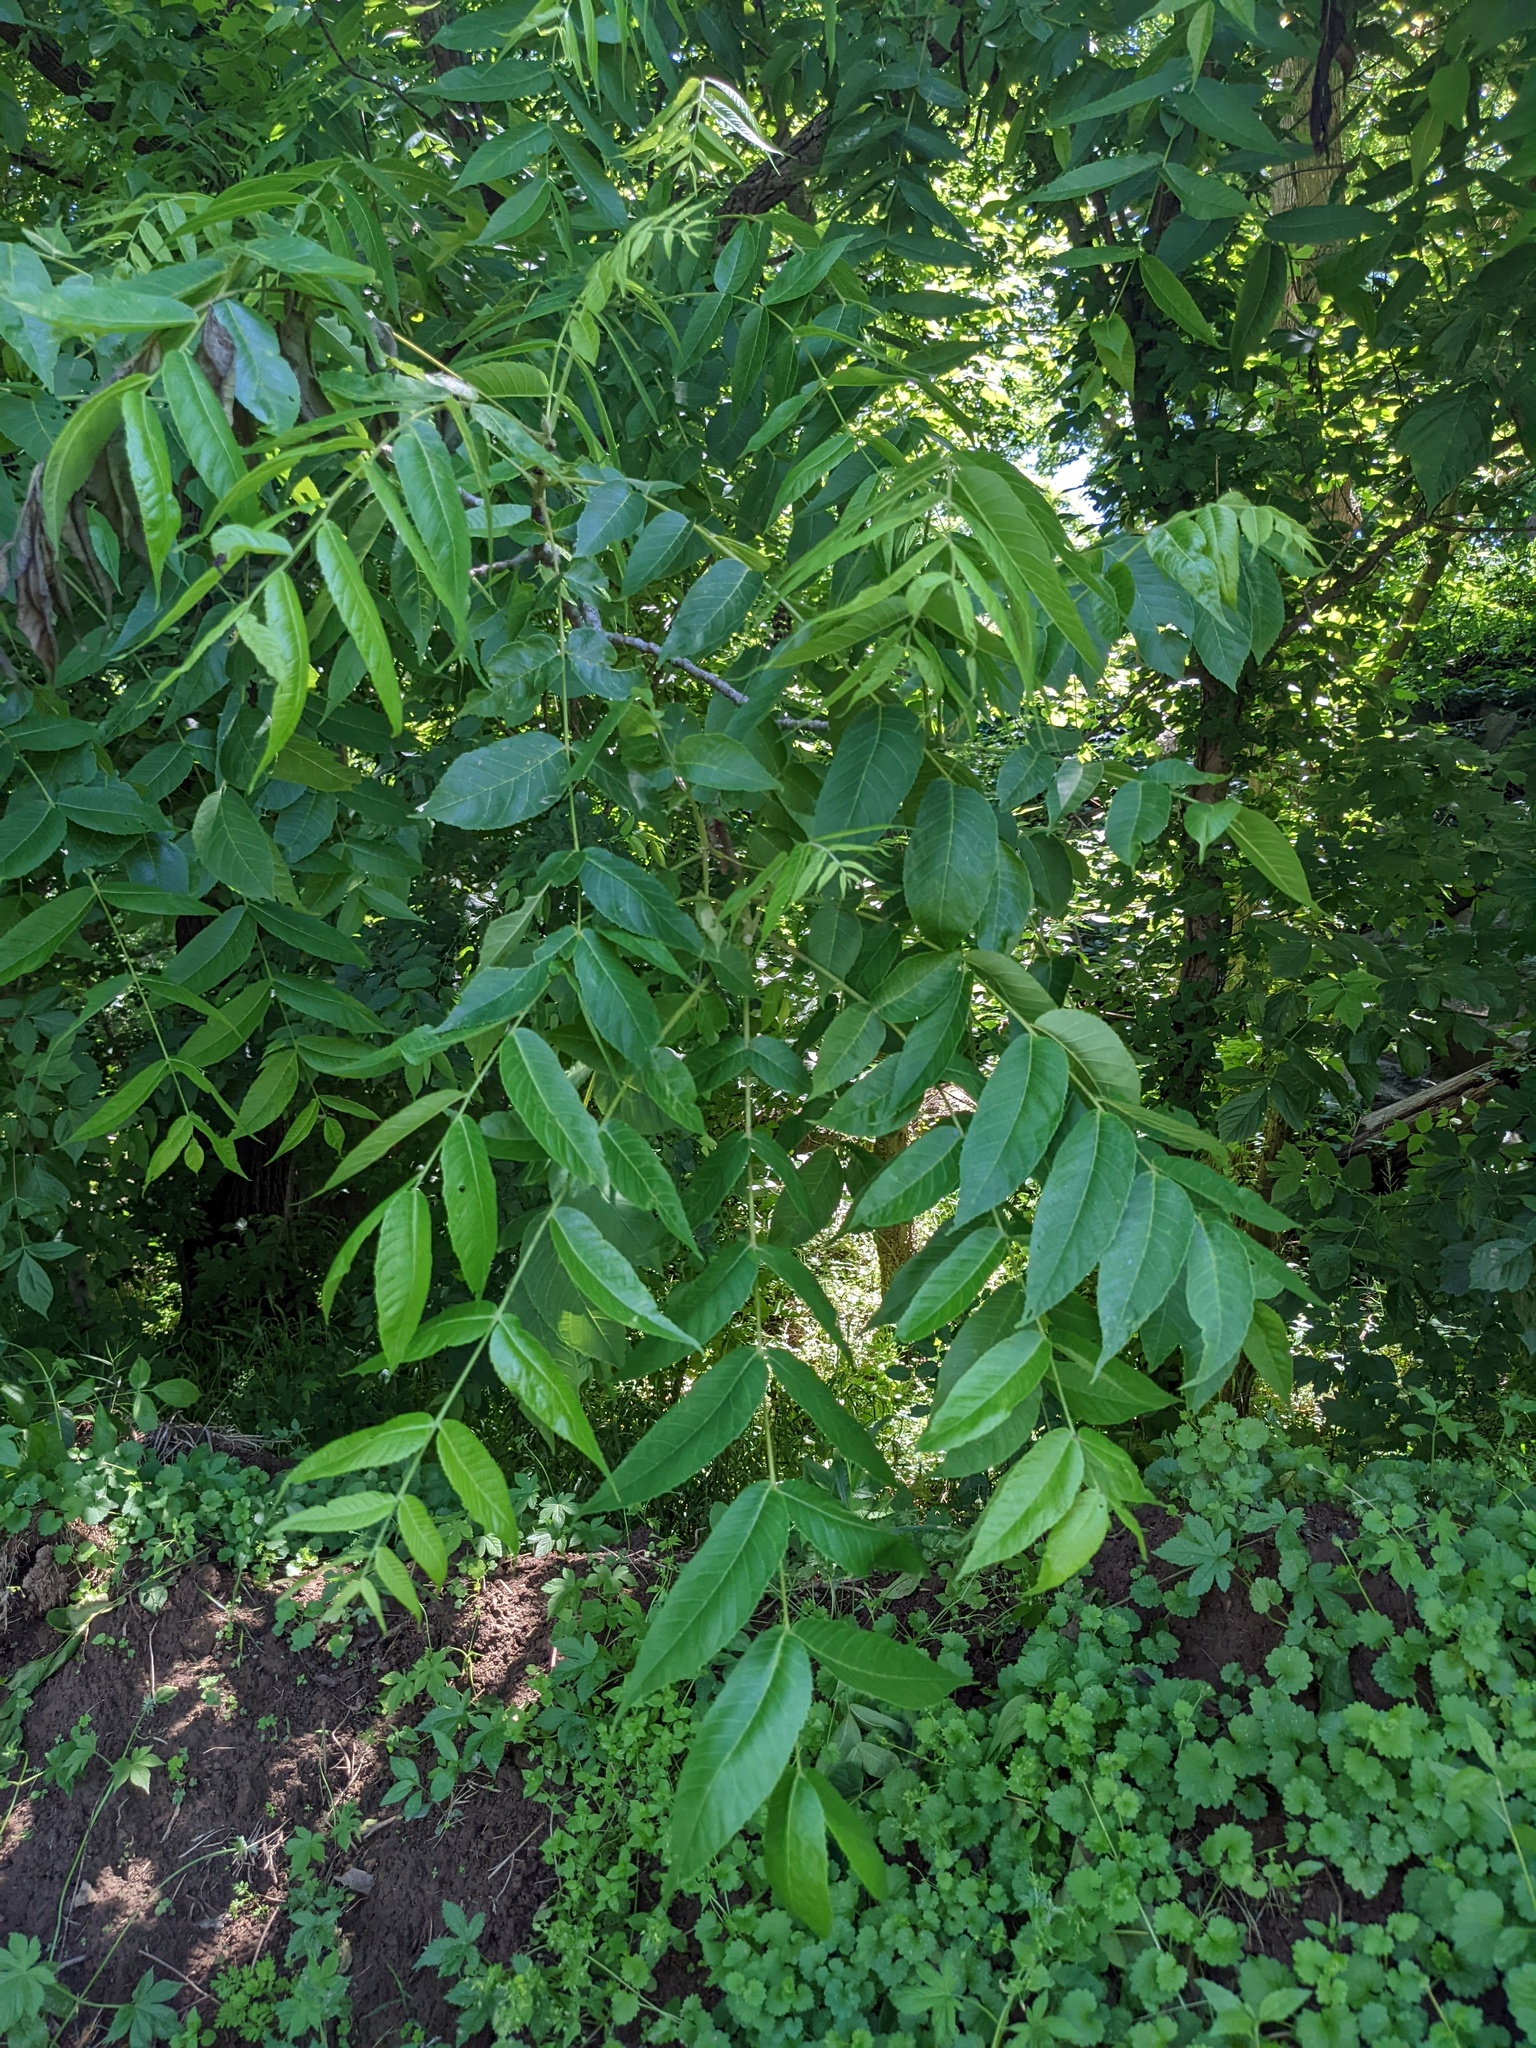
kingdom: Plantae
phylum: Tracheophyta
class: Magnoliopsida
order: Fagales
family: Juglandaceae
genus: Juglans
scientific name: Juglans nigra
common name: Black walnut
